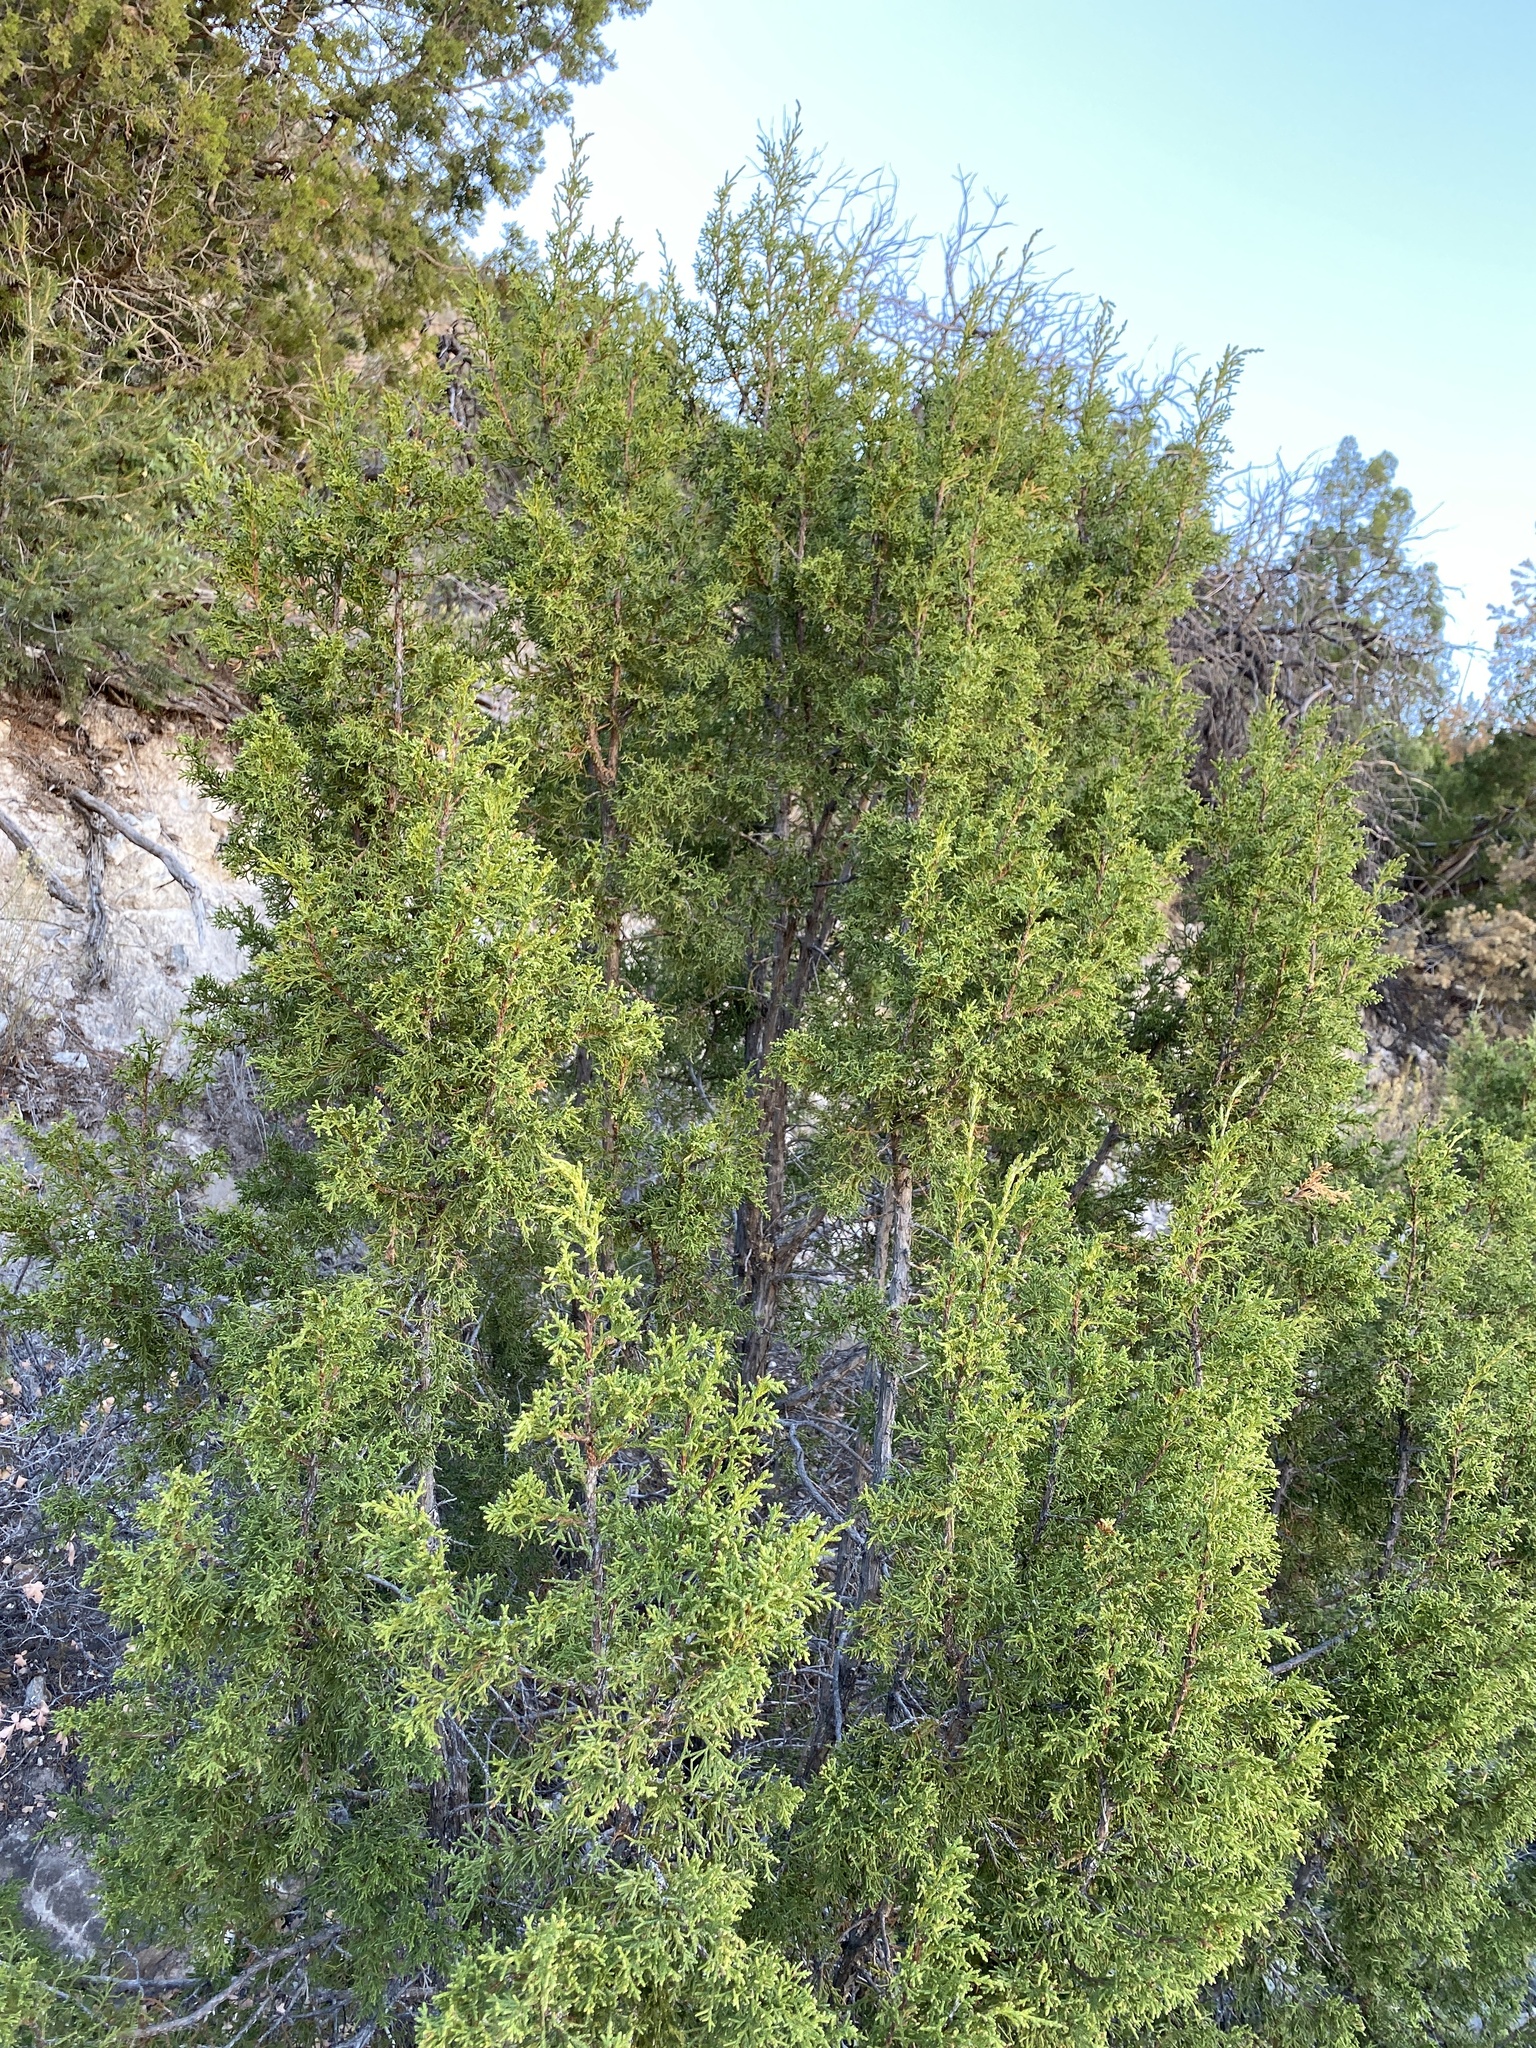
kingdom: Plantae
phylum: Tracheophyta
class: Pinopsida
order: Pinales
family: Cupressaceae
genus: Juniperus
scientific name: Juniperus monosperma
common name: One-seed juniper
